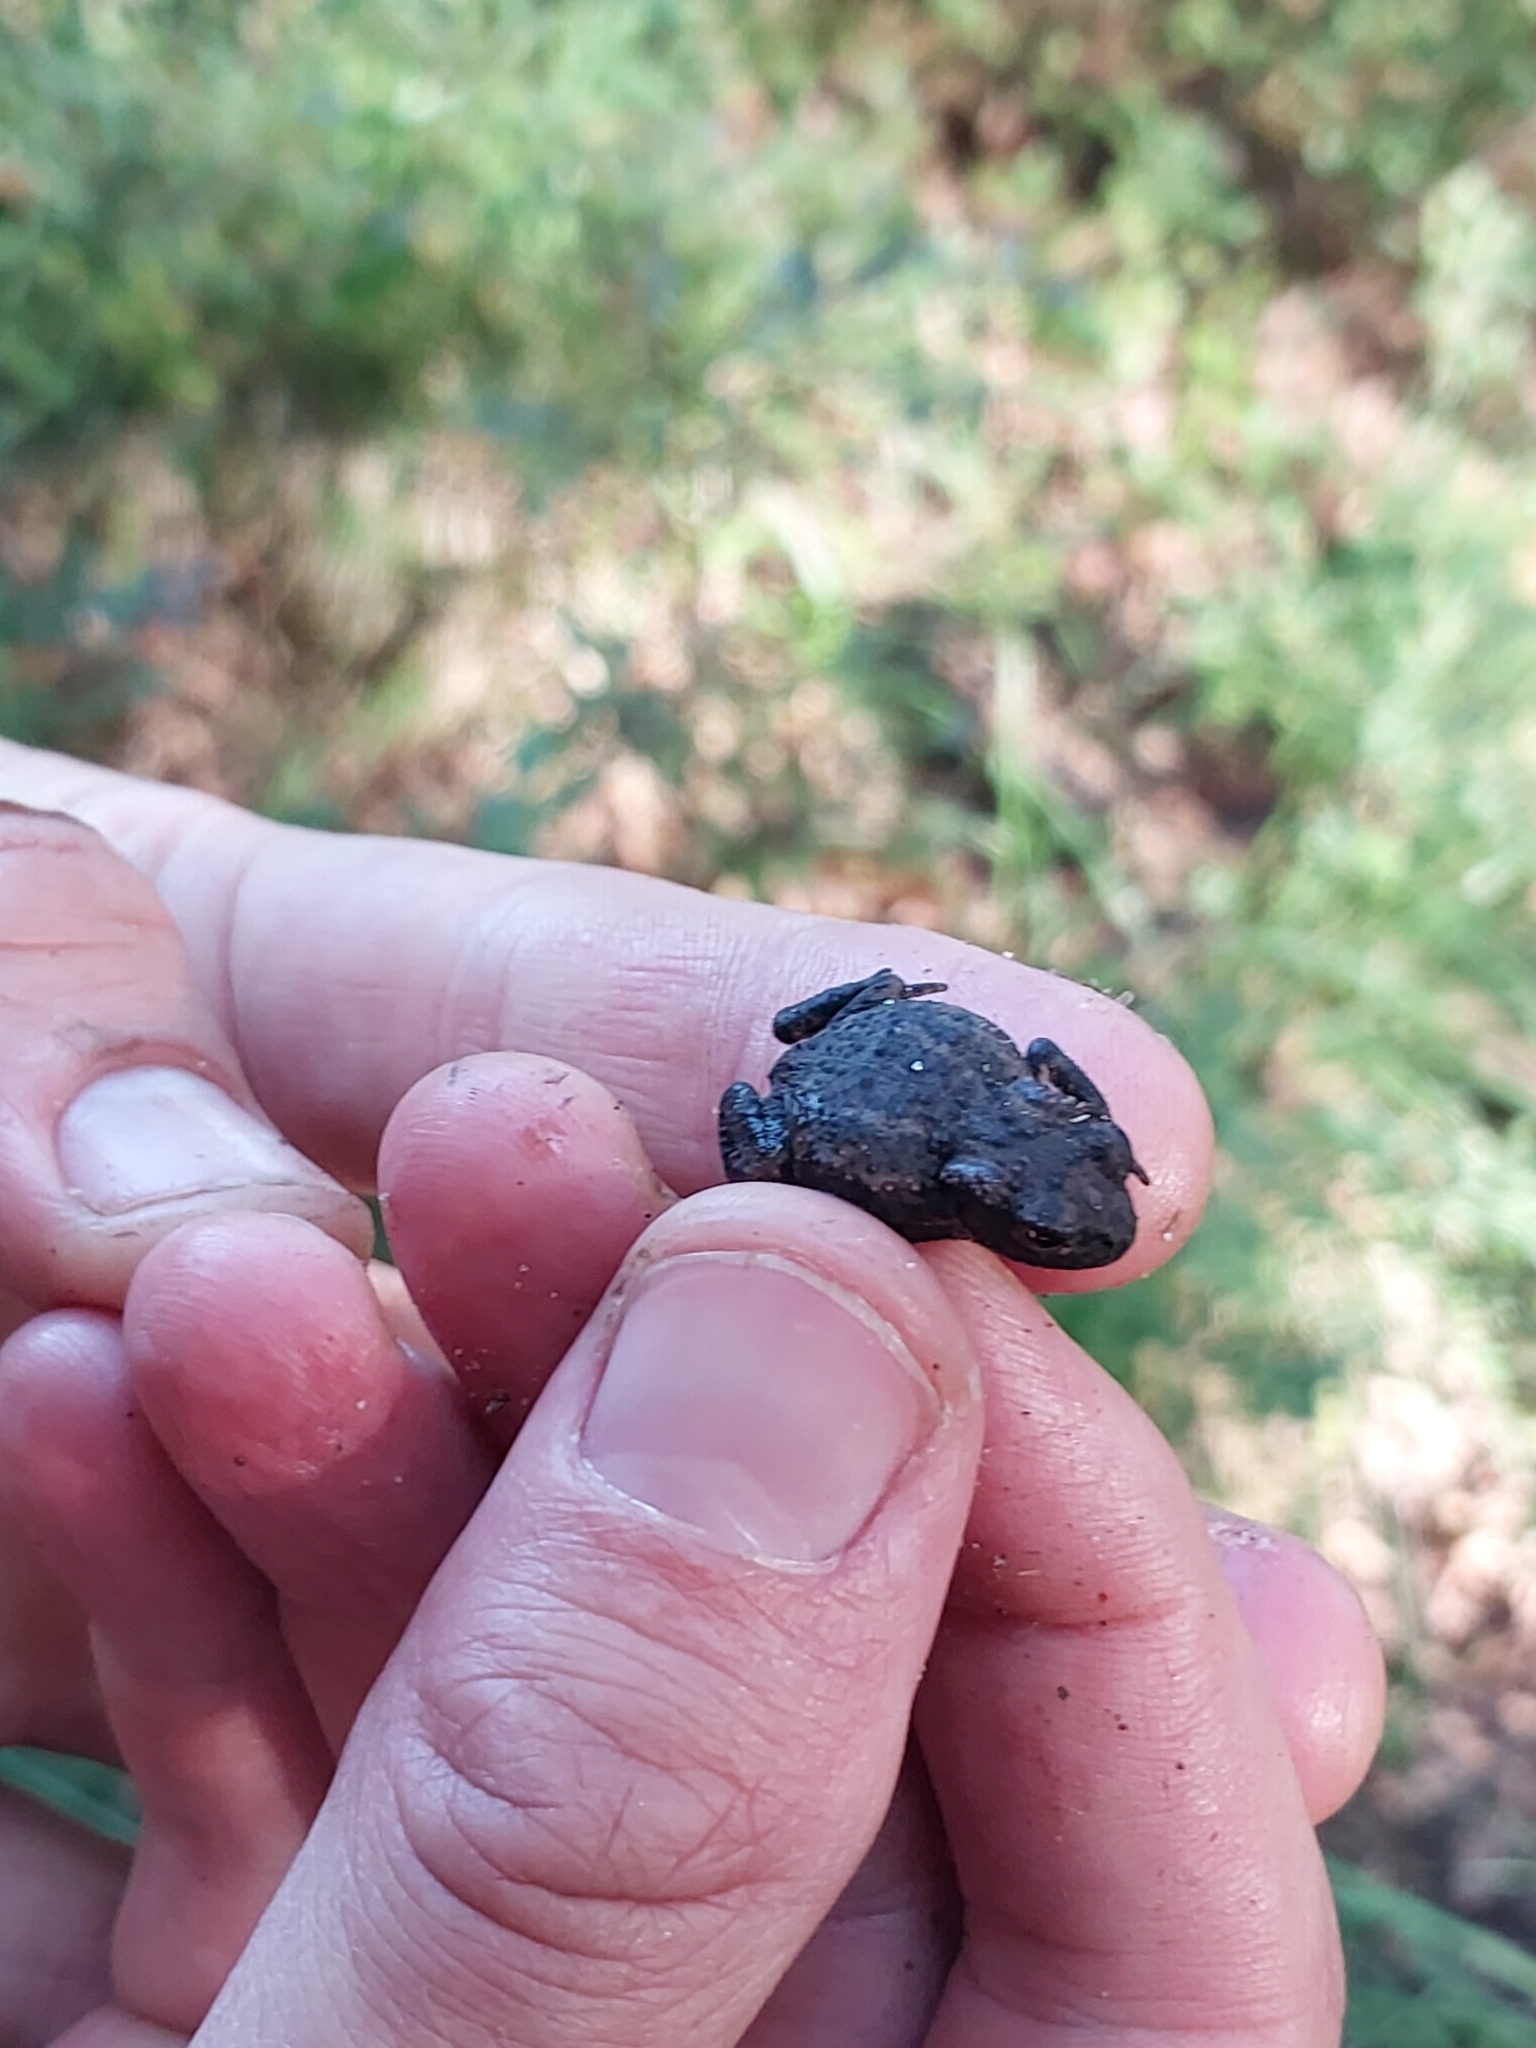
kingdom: Animalia
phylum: Chordata
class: Amphibia
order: Anura
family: Bufonidae
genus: Bufo
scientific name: Bufo bufo
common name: Common toad
